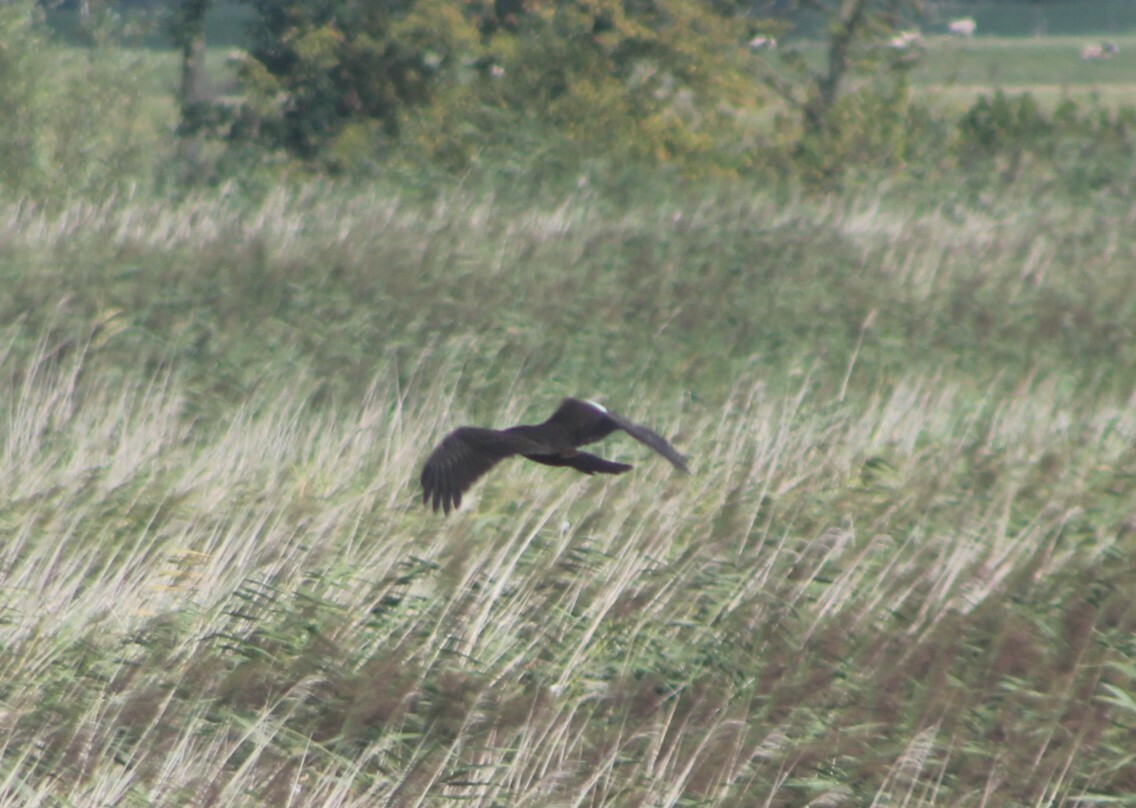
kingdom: Animalia
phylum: Chordata
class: Aves
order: Accipitriformes
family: Accipitridae
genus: Circus
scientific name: Circus aeruginosus
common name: Western marsh harrier
